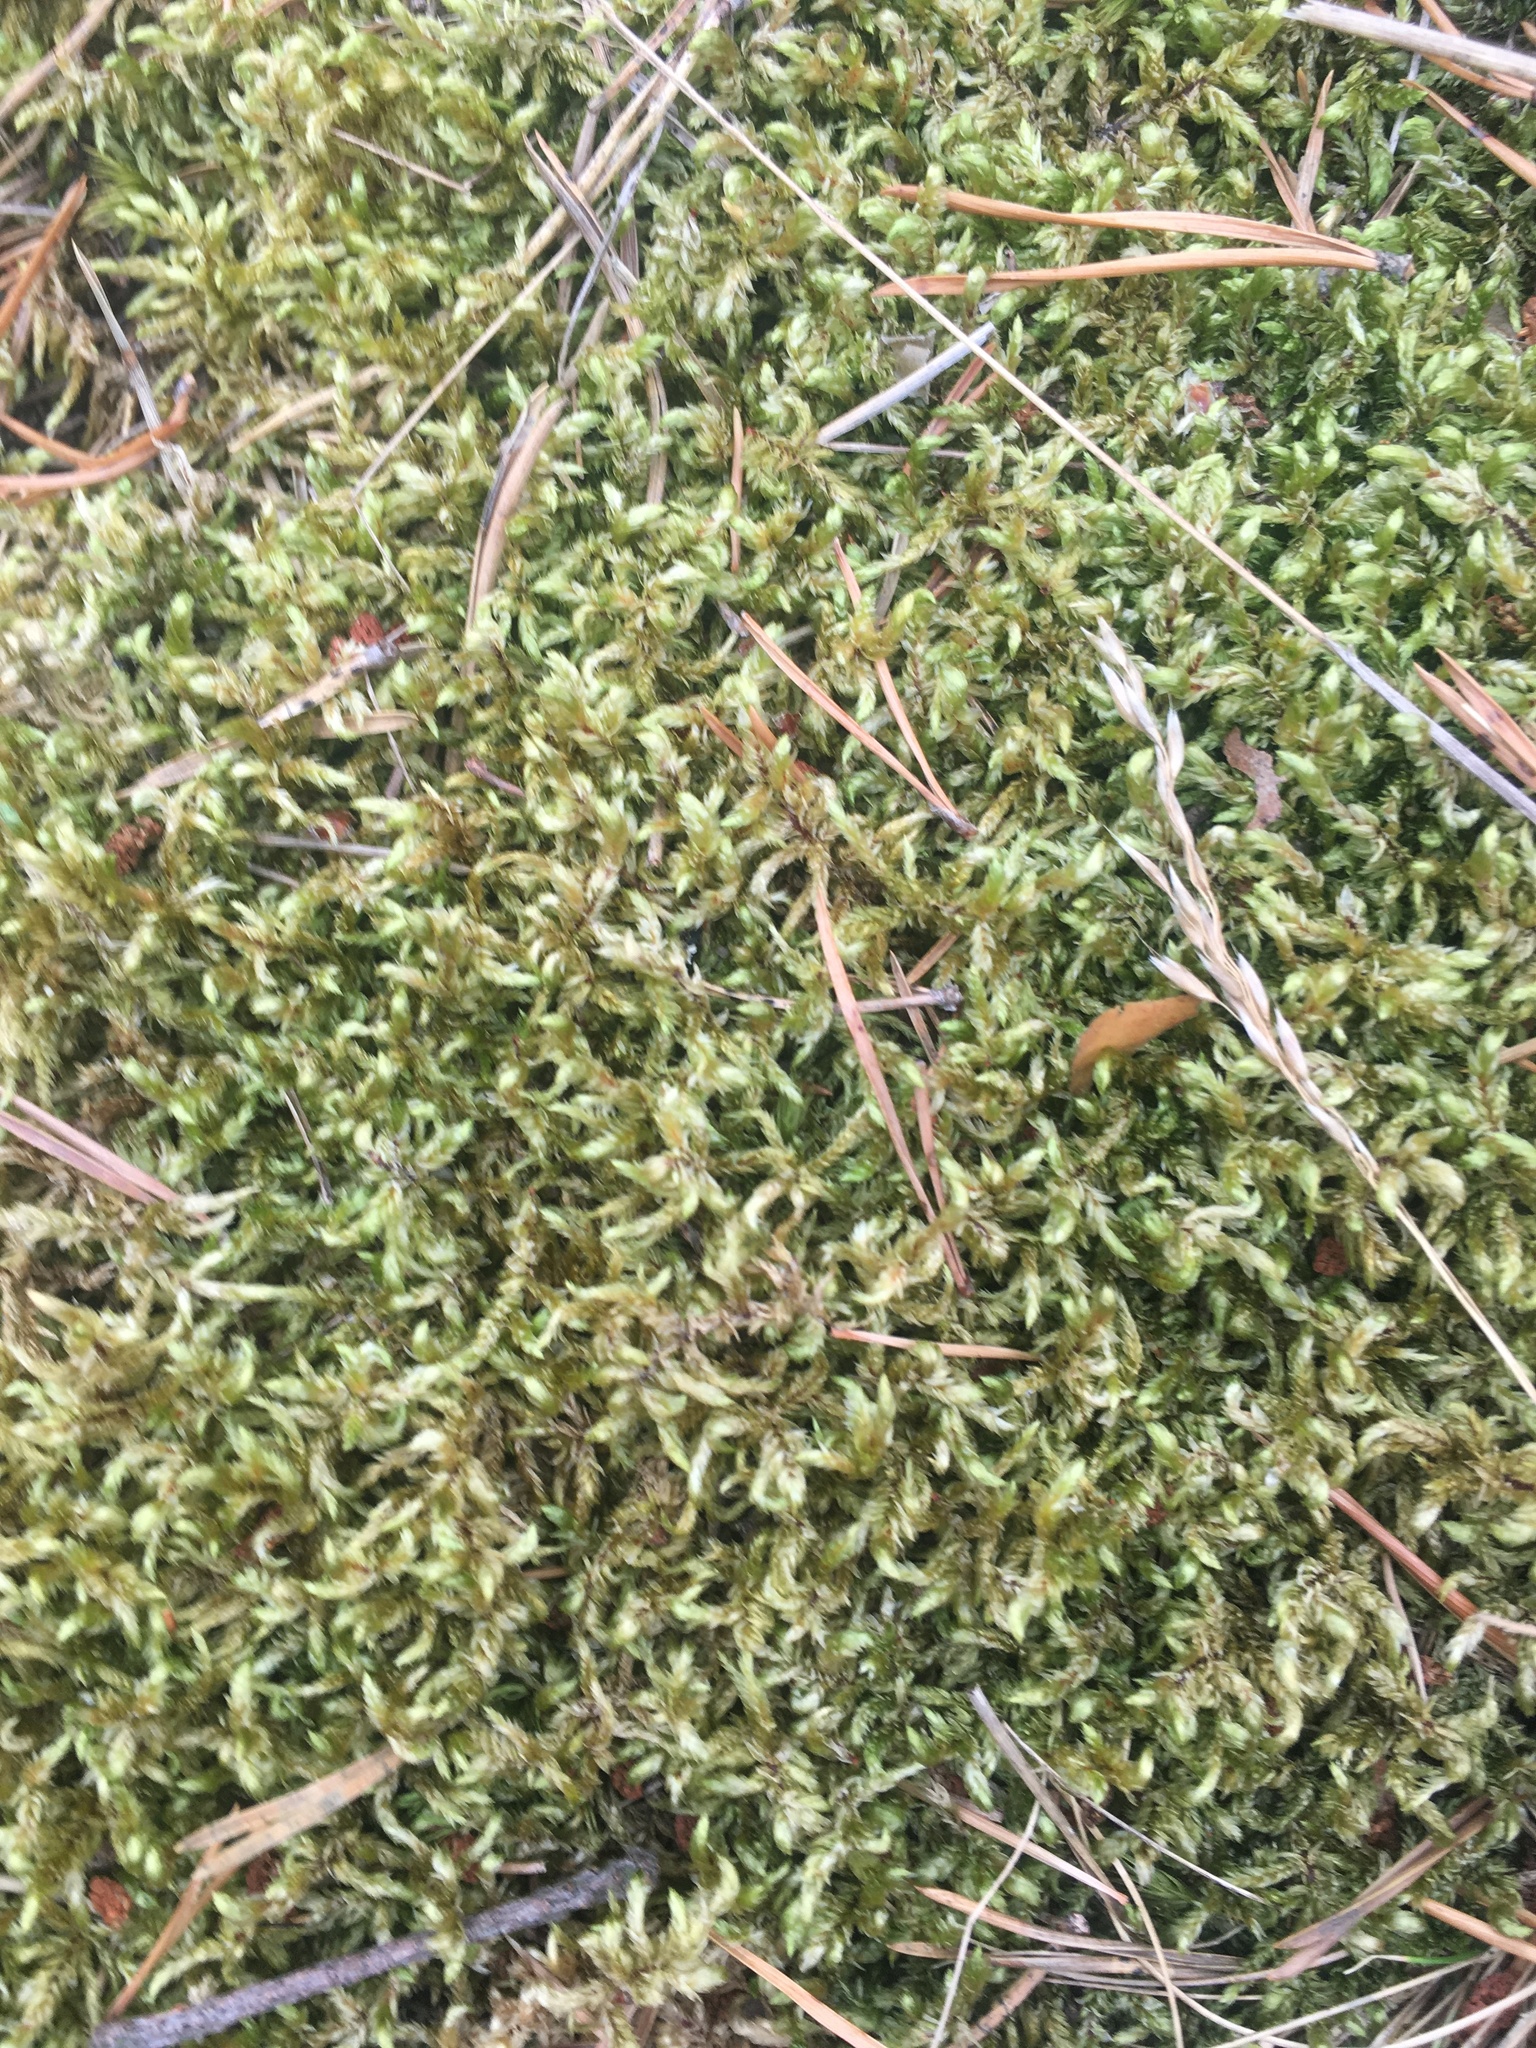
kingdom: Plantae
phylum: Bryophyta
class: Bryopsida
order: Hypnales
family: Hylocomiaceae
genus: Pleurozium
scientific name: Pleurozium schreberi
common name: Red-stemmed feather moss
